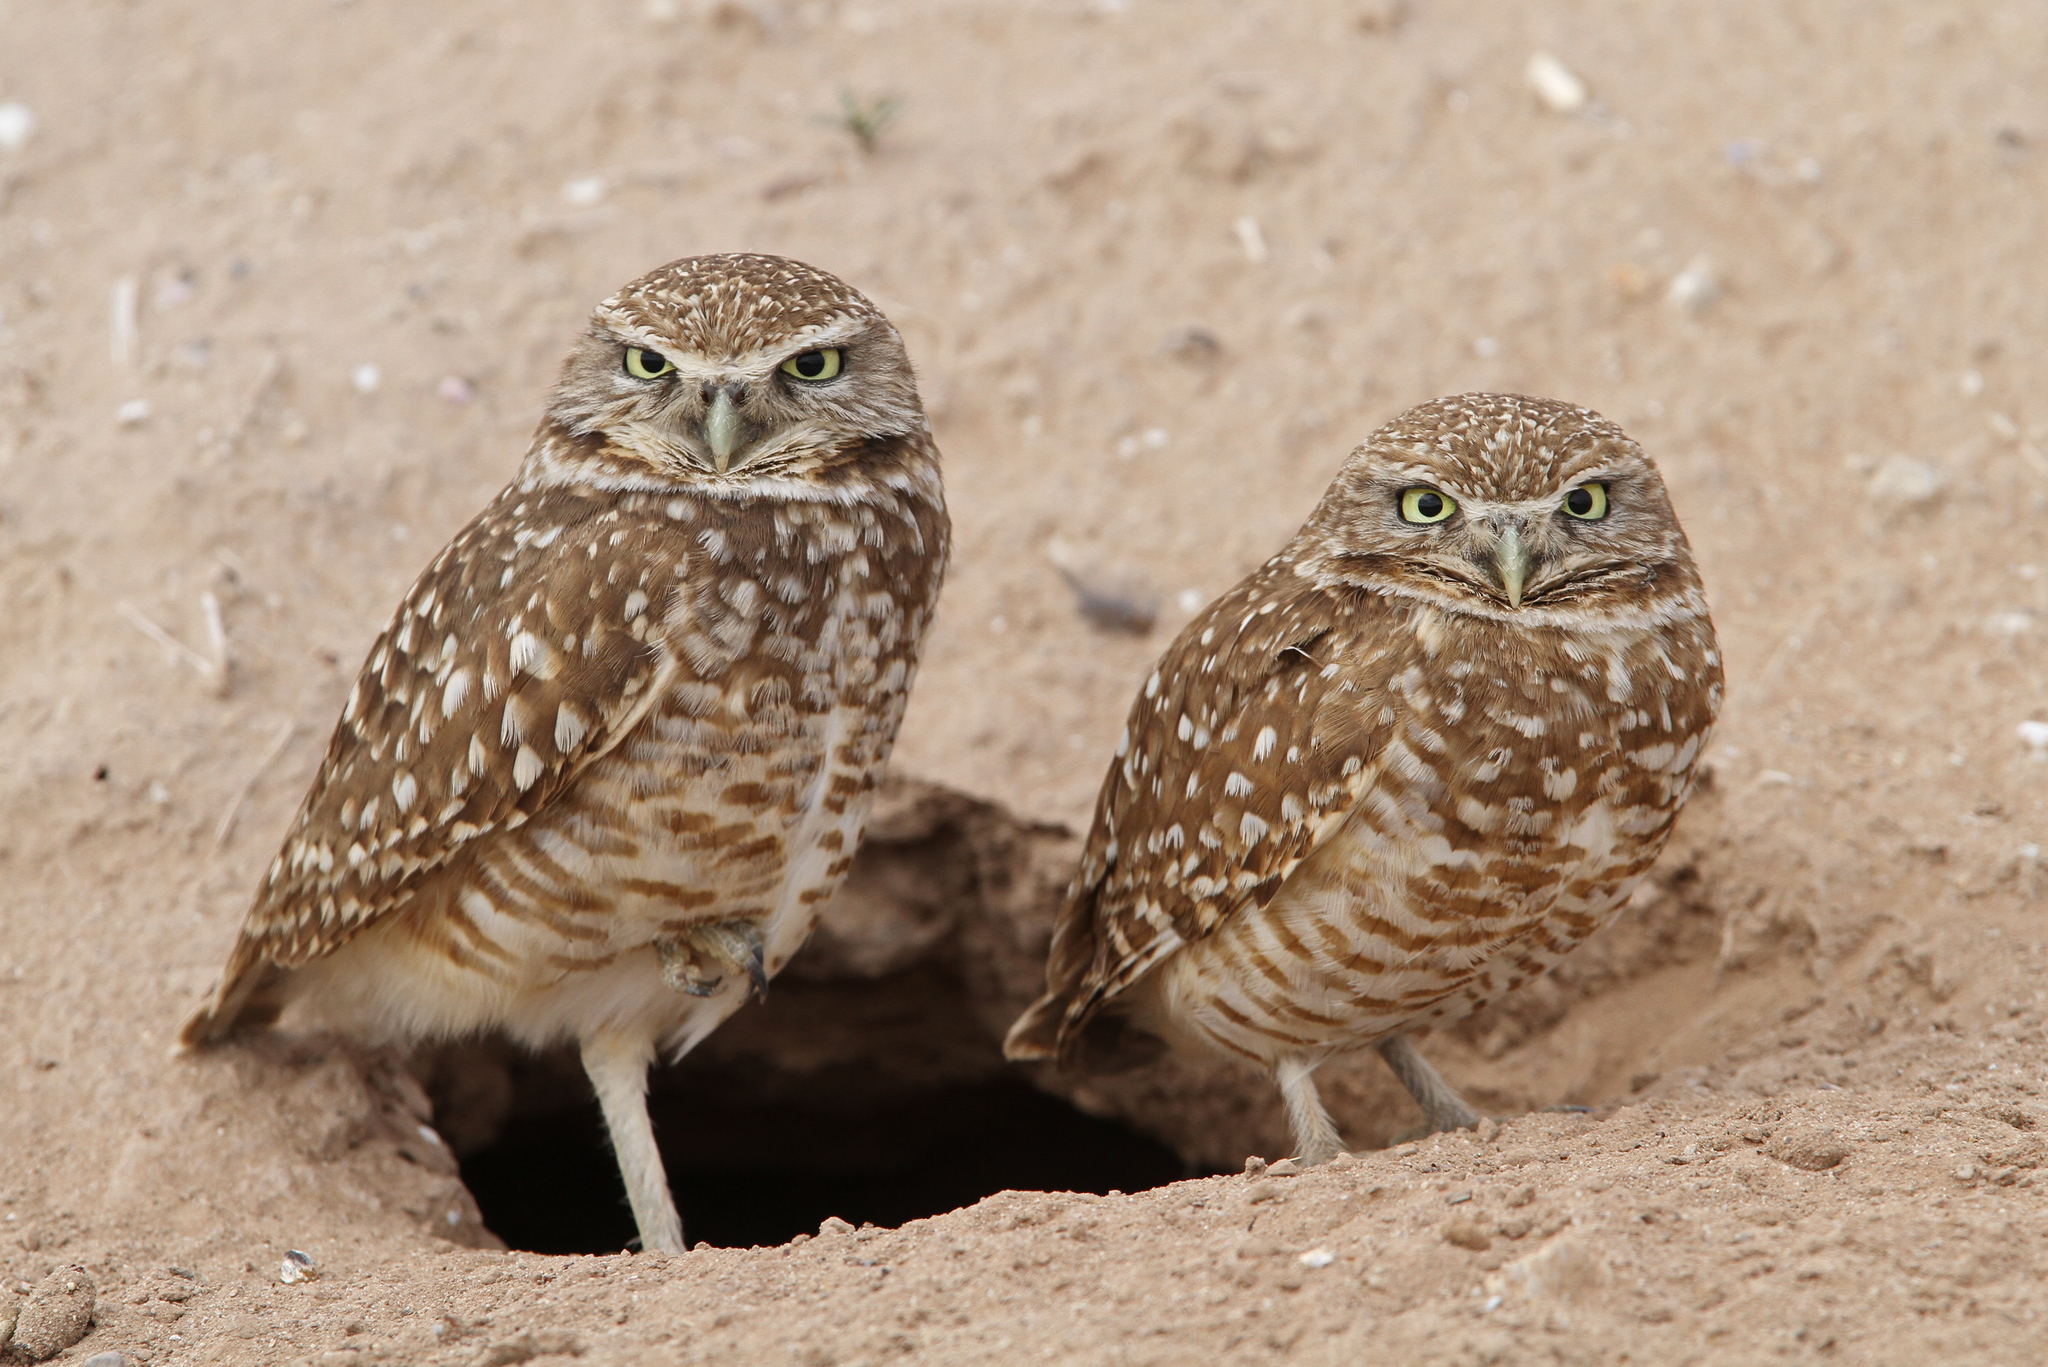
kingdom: Animalia
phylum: Chordata
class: Aves
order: Strigiformes
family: Strigidae
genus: Athene
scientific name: Athene cunicularia
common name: Burrowing owl
